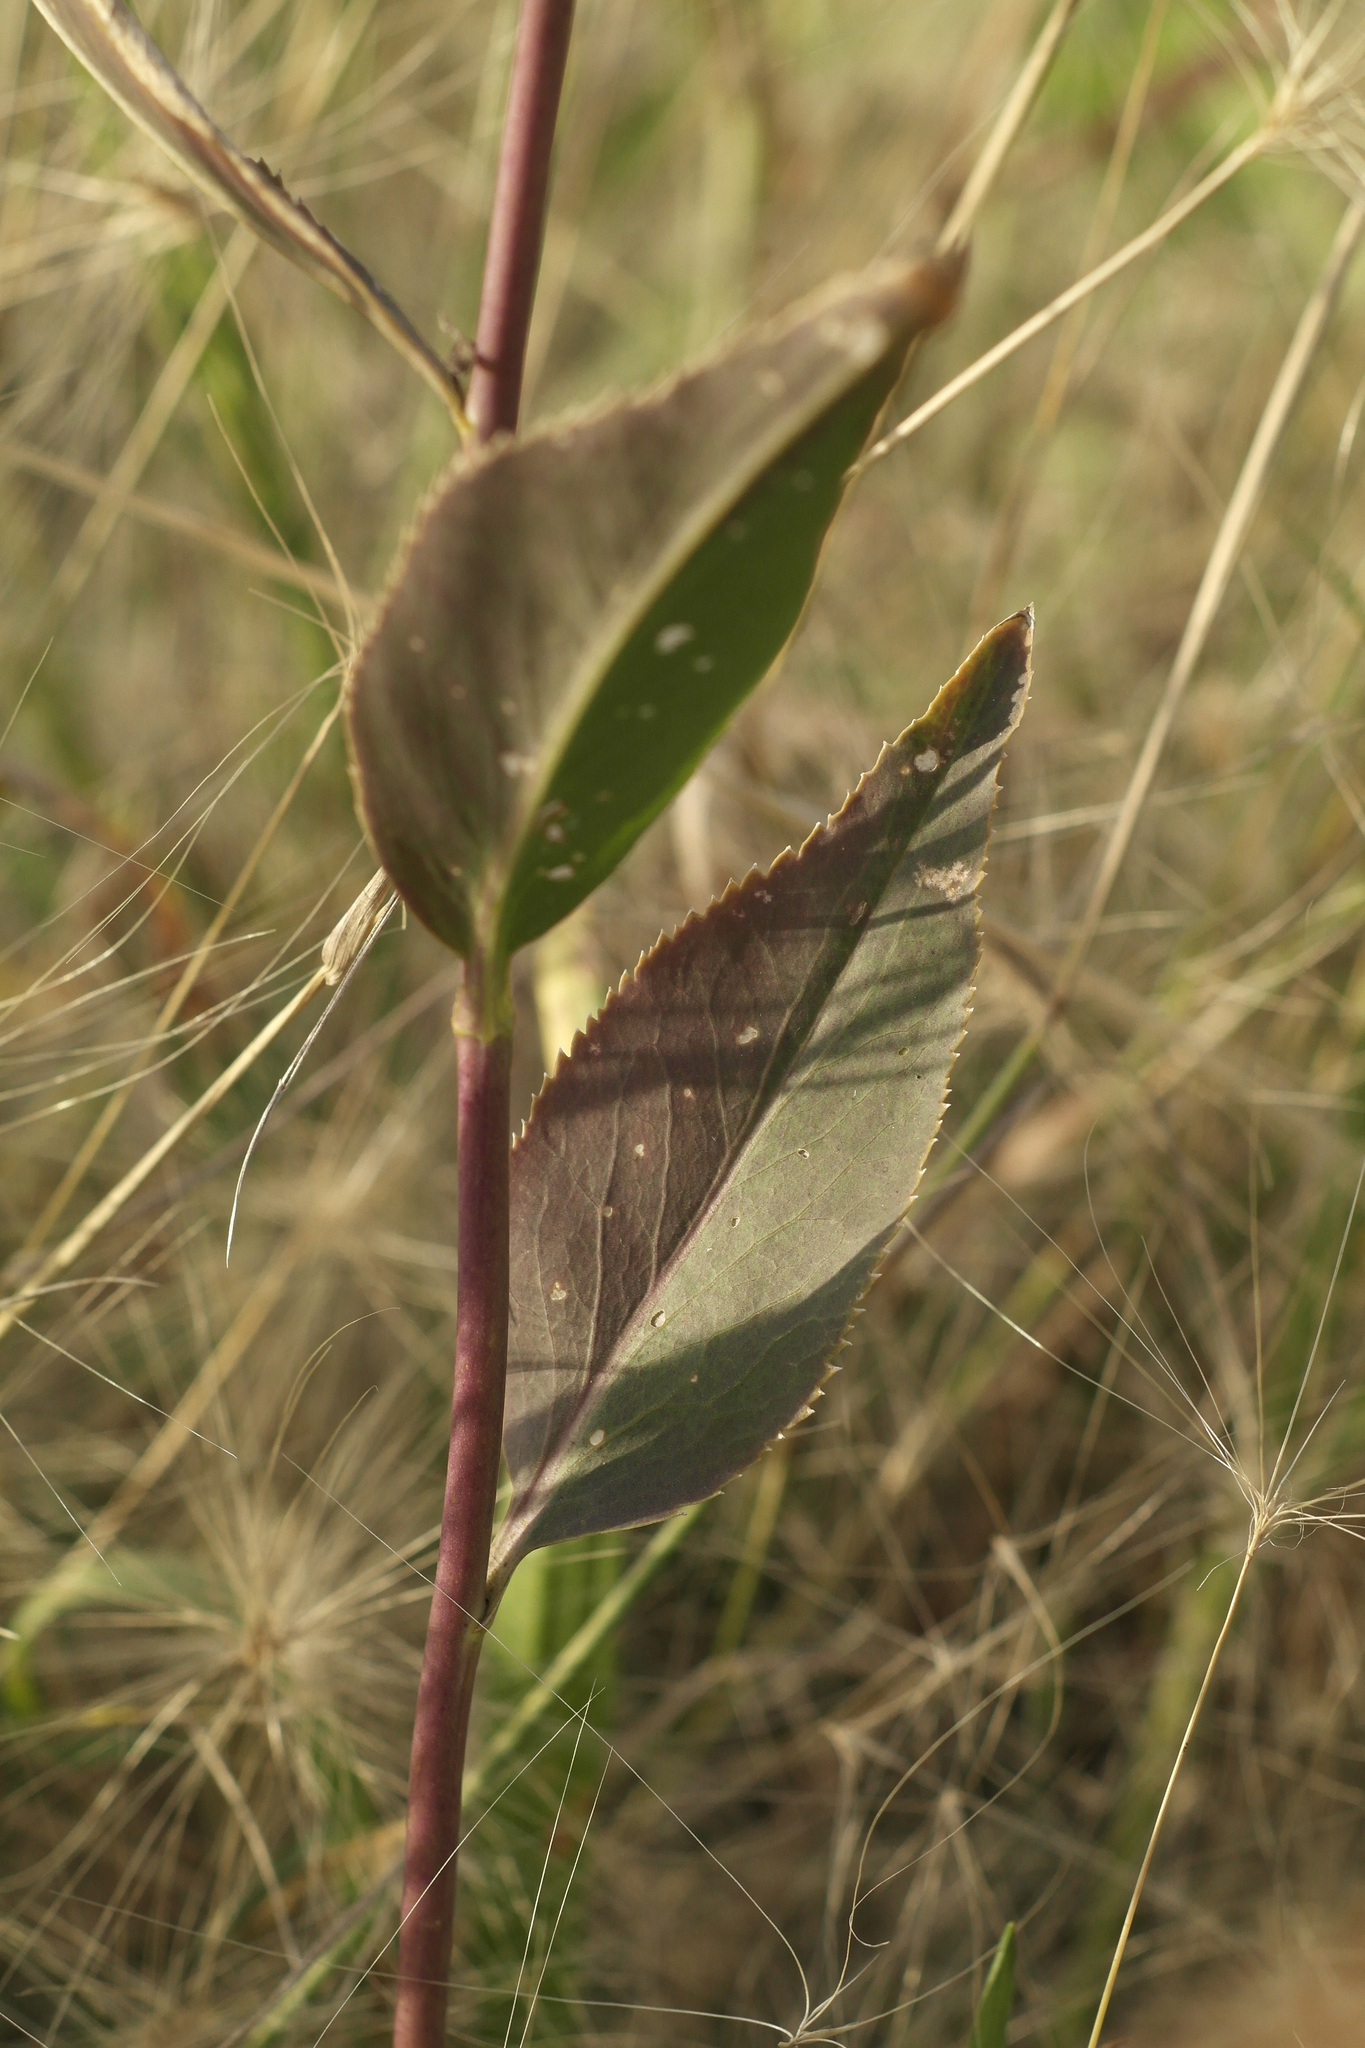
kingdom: Plantae
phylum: Tracheophyta
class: Magnoliopsida
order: Brassicales
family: Brassicaceae
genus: Lepidium
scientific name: Lepidium latifolium
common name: Dittander
